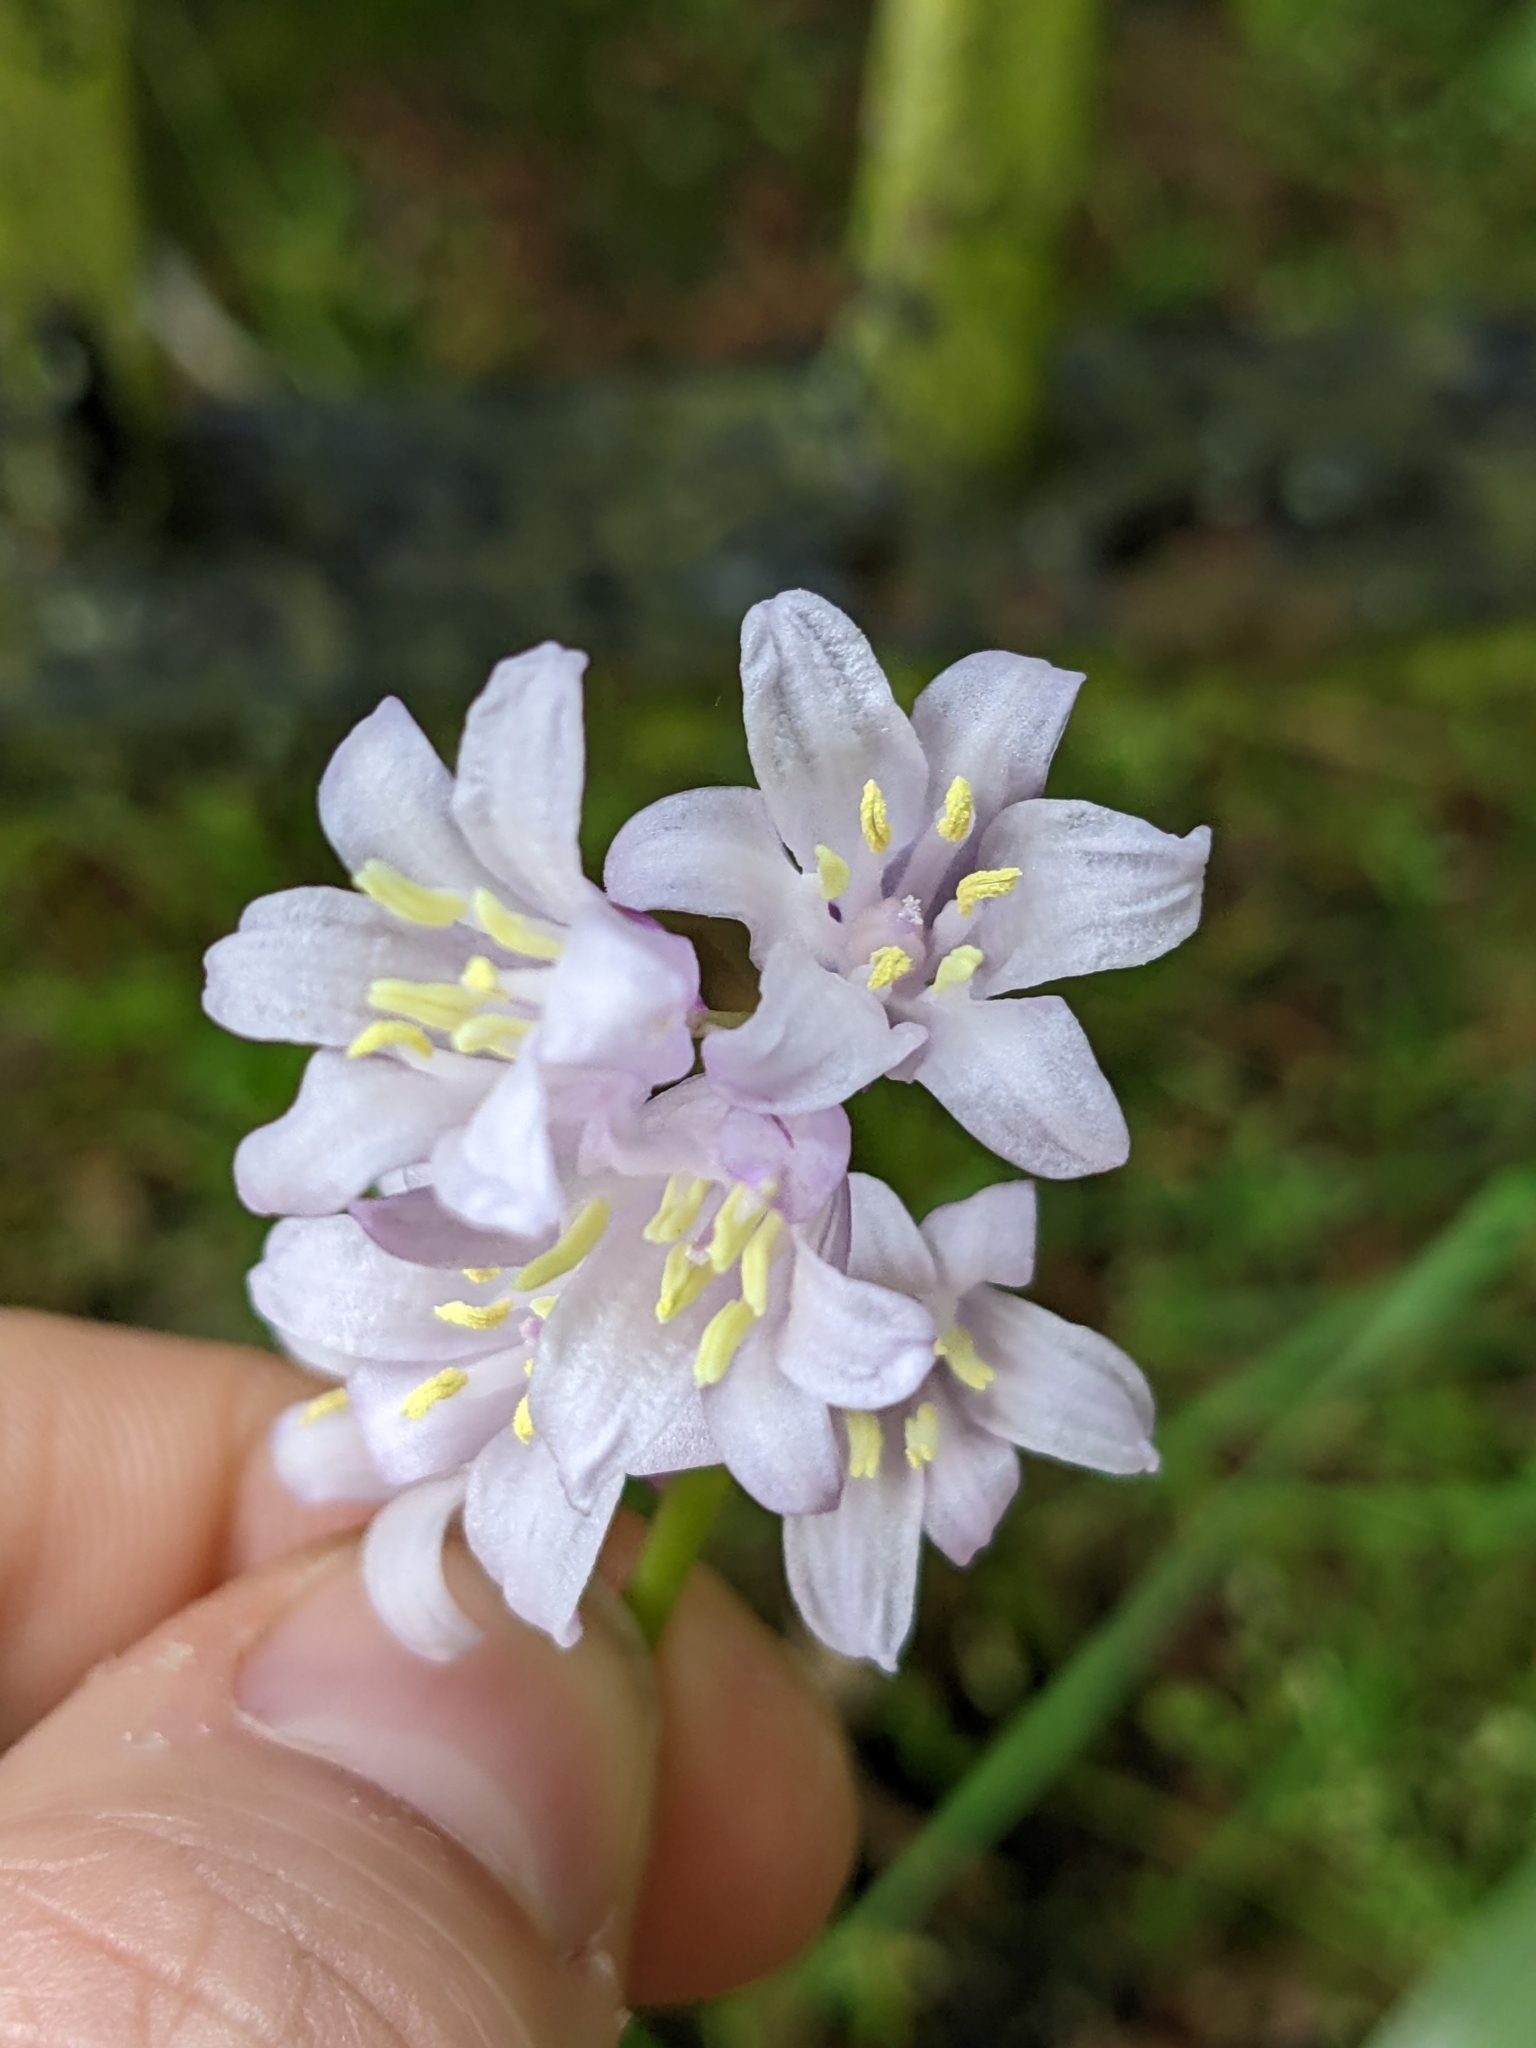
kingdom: Plantae
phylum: Tracheophyta
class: Liliopsida
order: Asparagales
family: Asparagaceae
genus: Hyacinthoides
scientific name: Hyacinthoides hispanica
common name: Spanish bluebell
